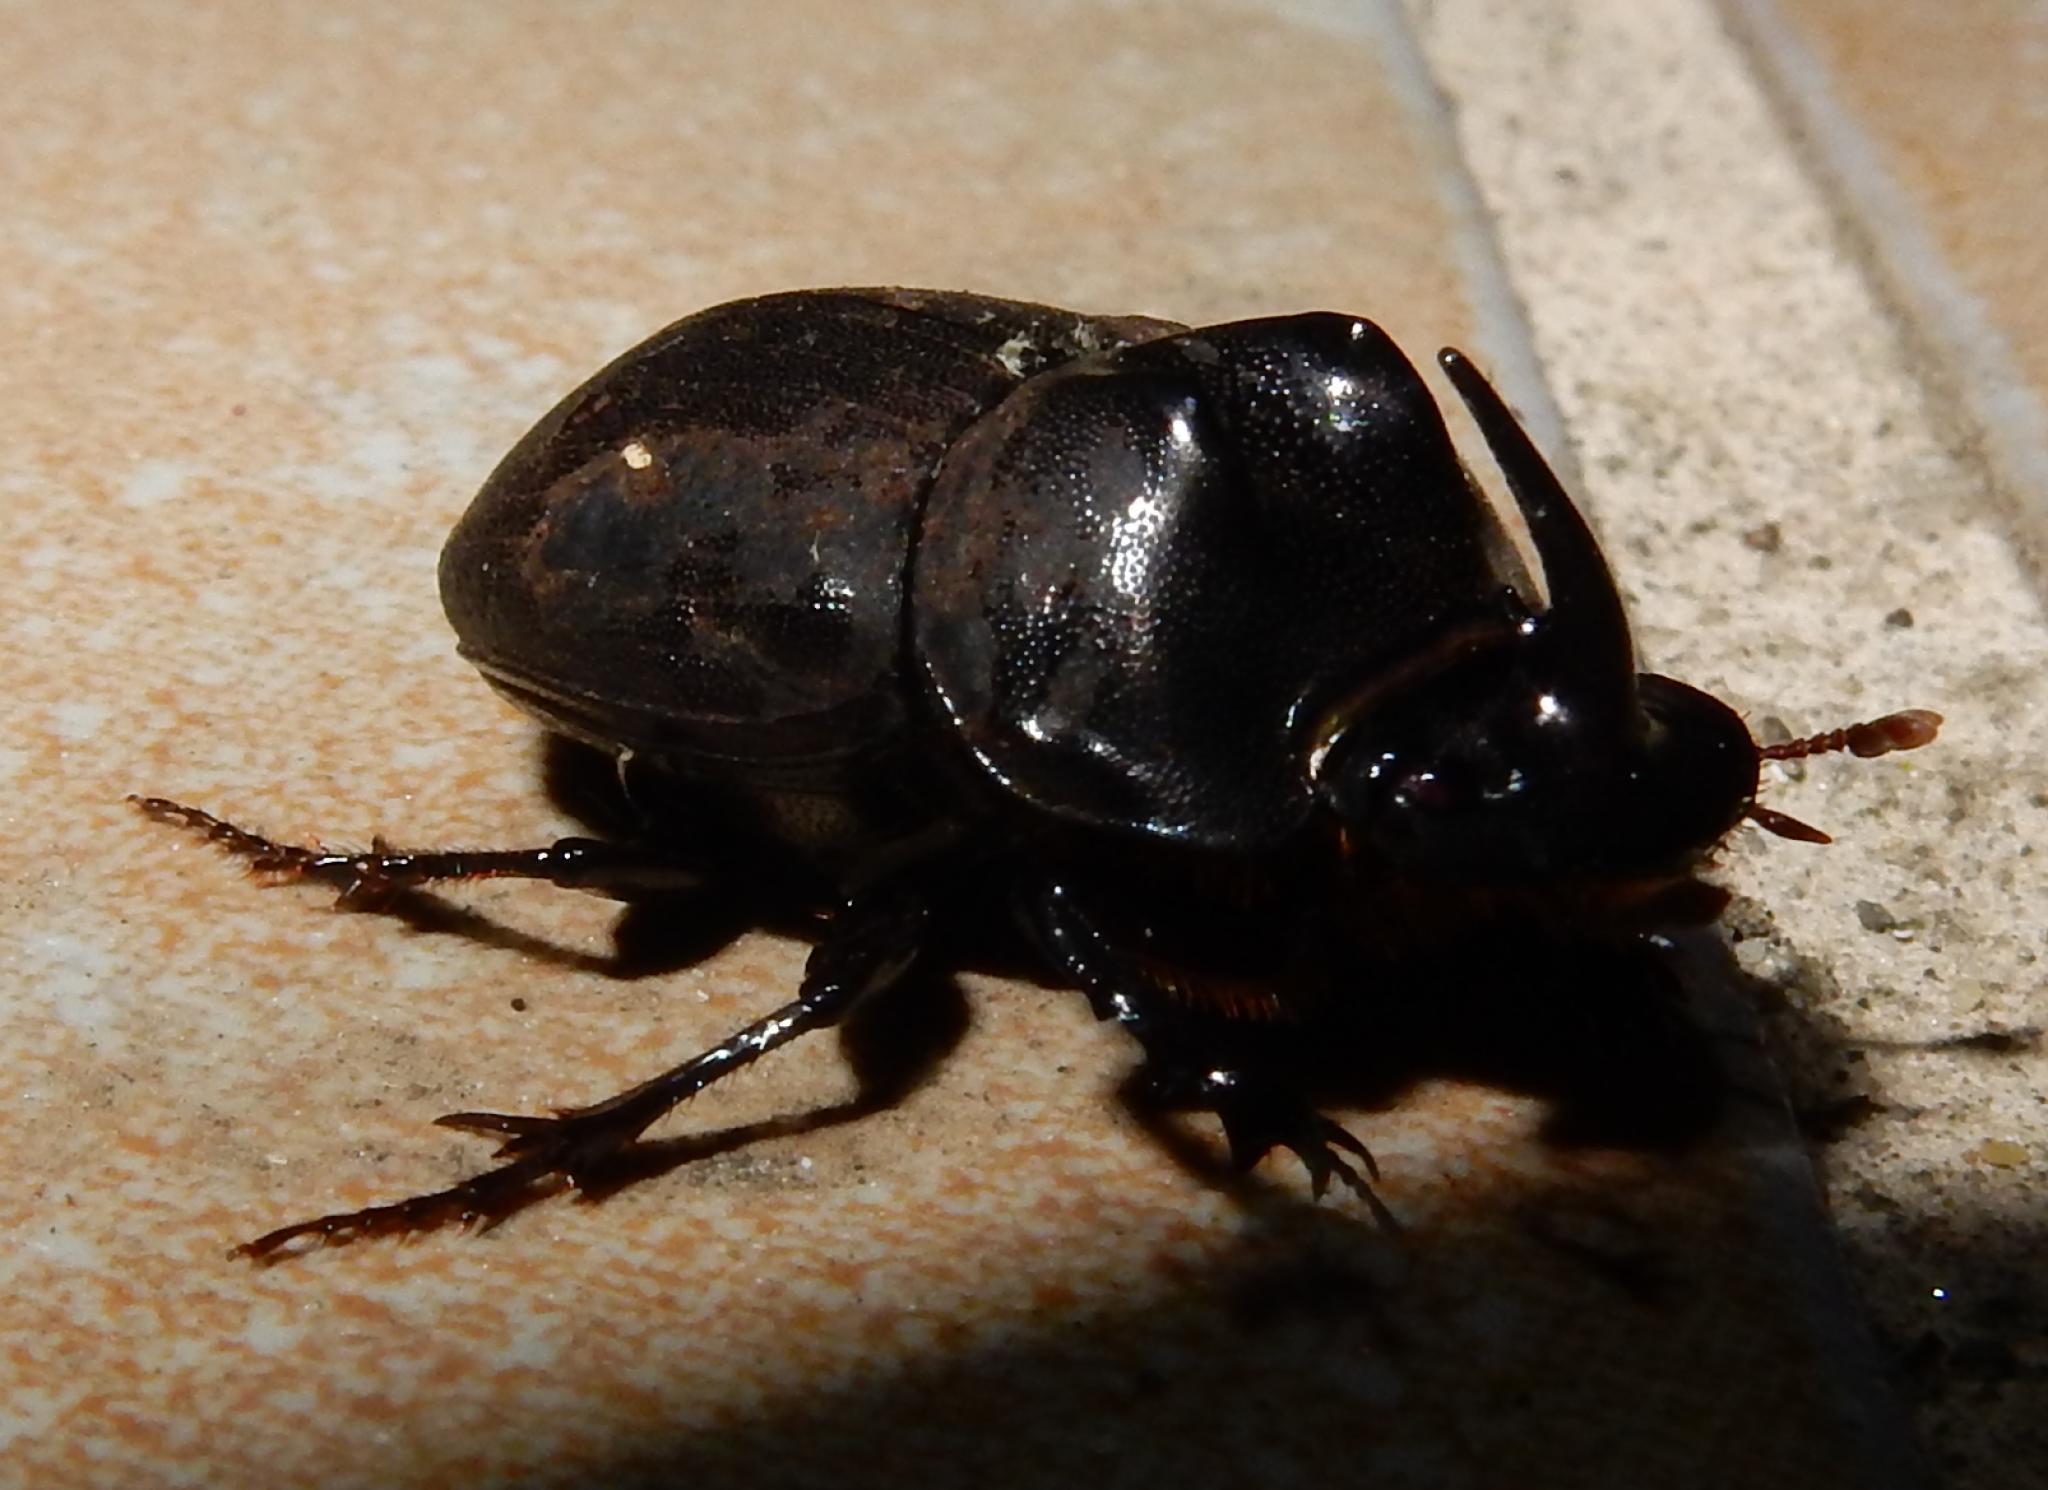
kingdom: Animalia
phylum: Arthropoda
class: Insecta
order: Coleoptera
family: Scarabaeidae
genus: Copris
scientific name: Copris fidius
